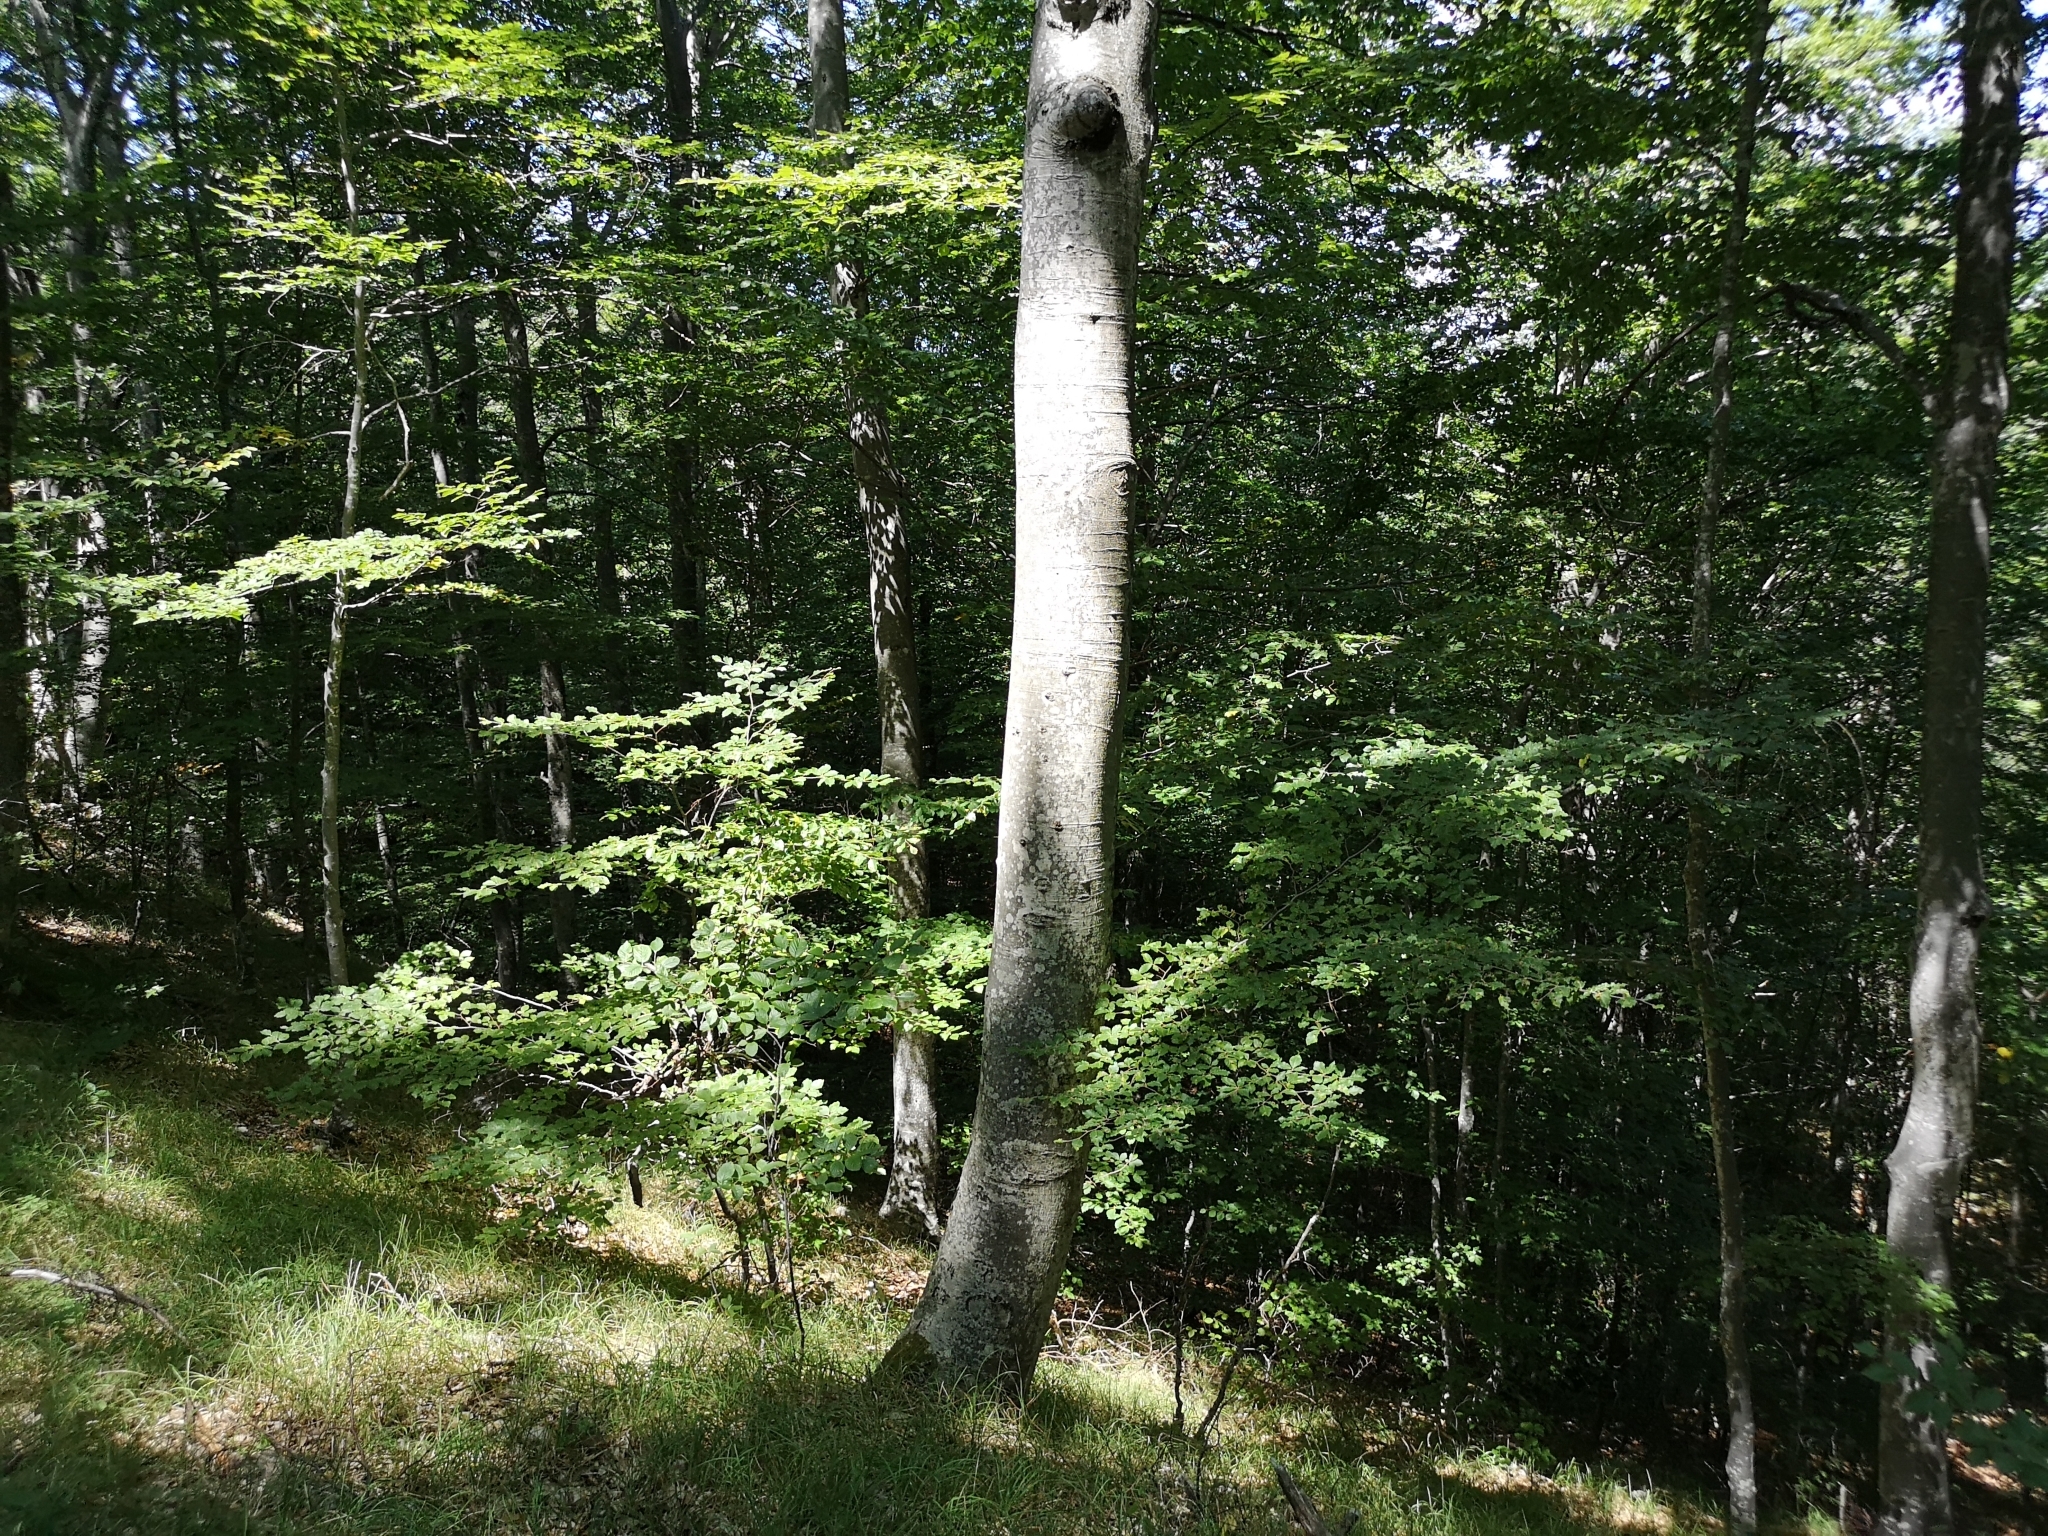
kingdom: Plantae
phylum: Tracheophyta
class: Magnoliopsida
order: Fagales
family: Fagaceae
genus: Fagus
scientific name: Fagus sylvatica
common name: Beech
